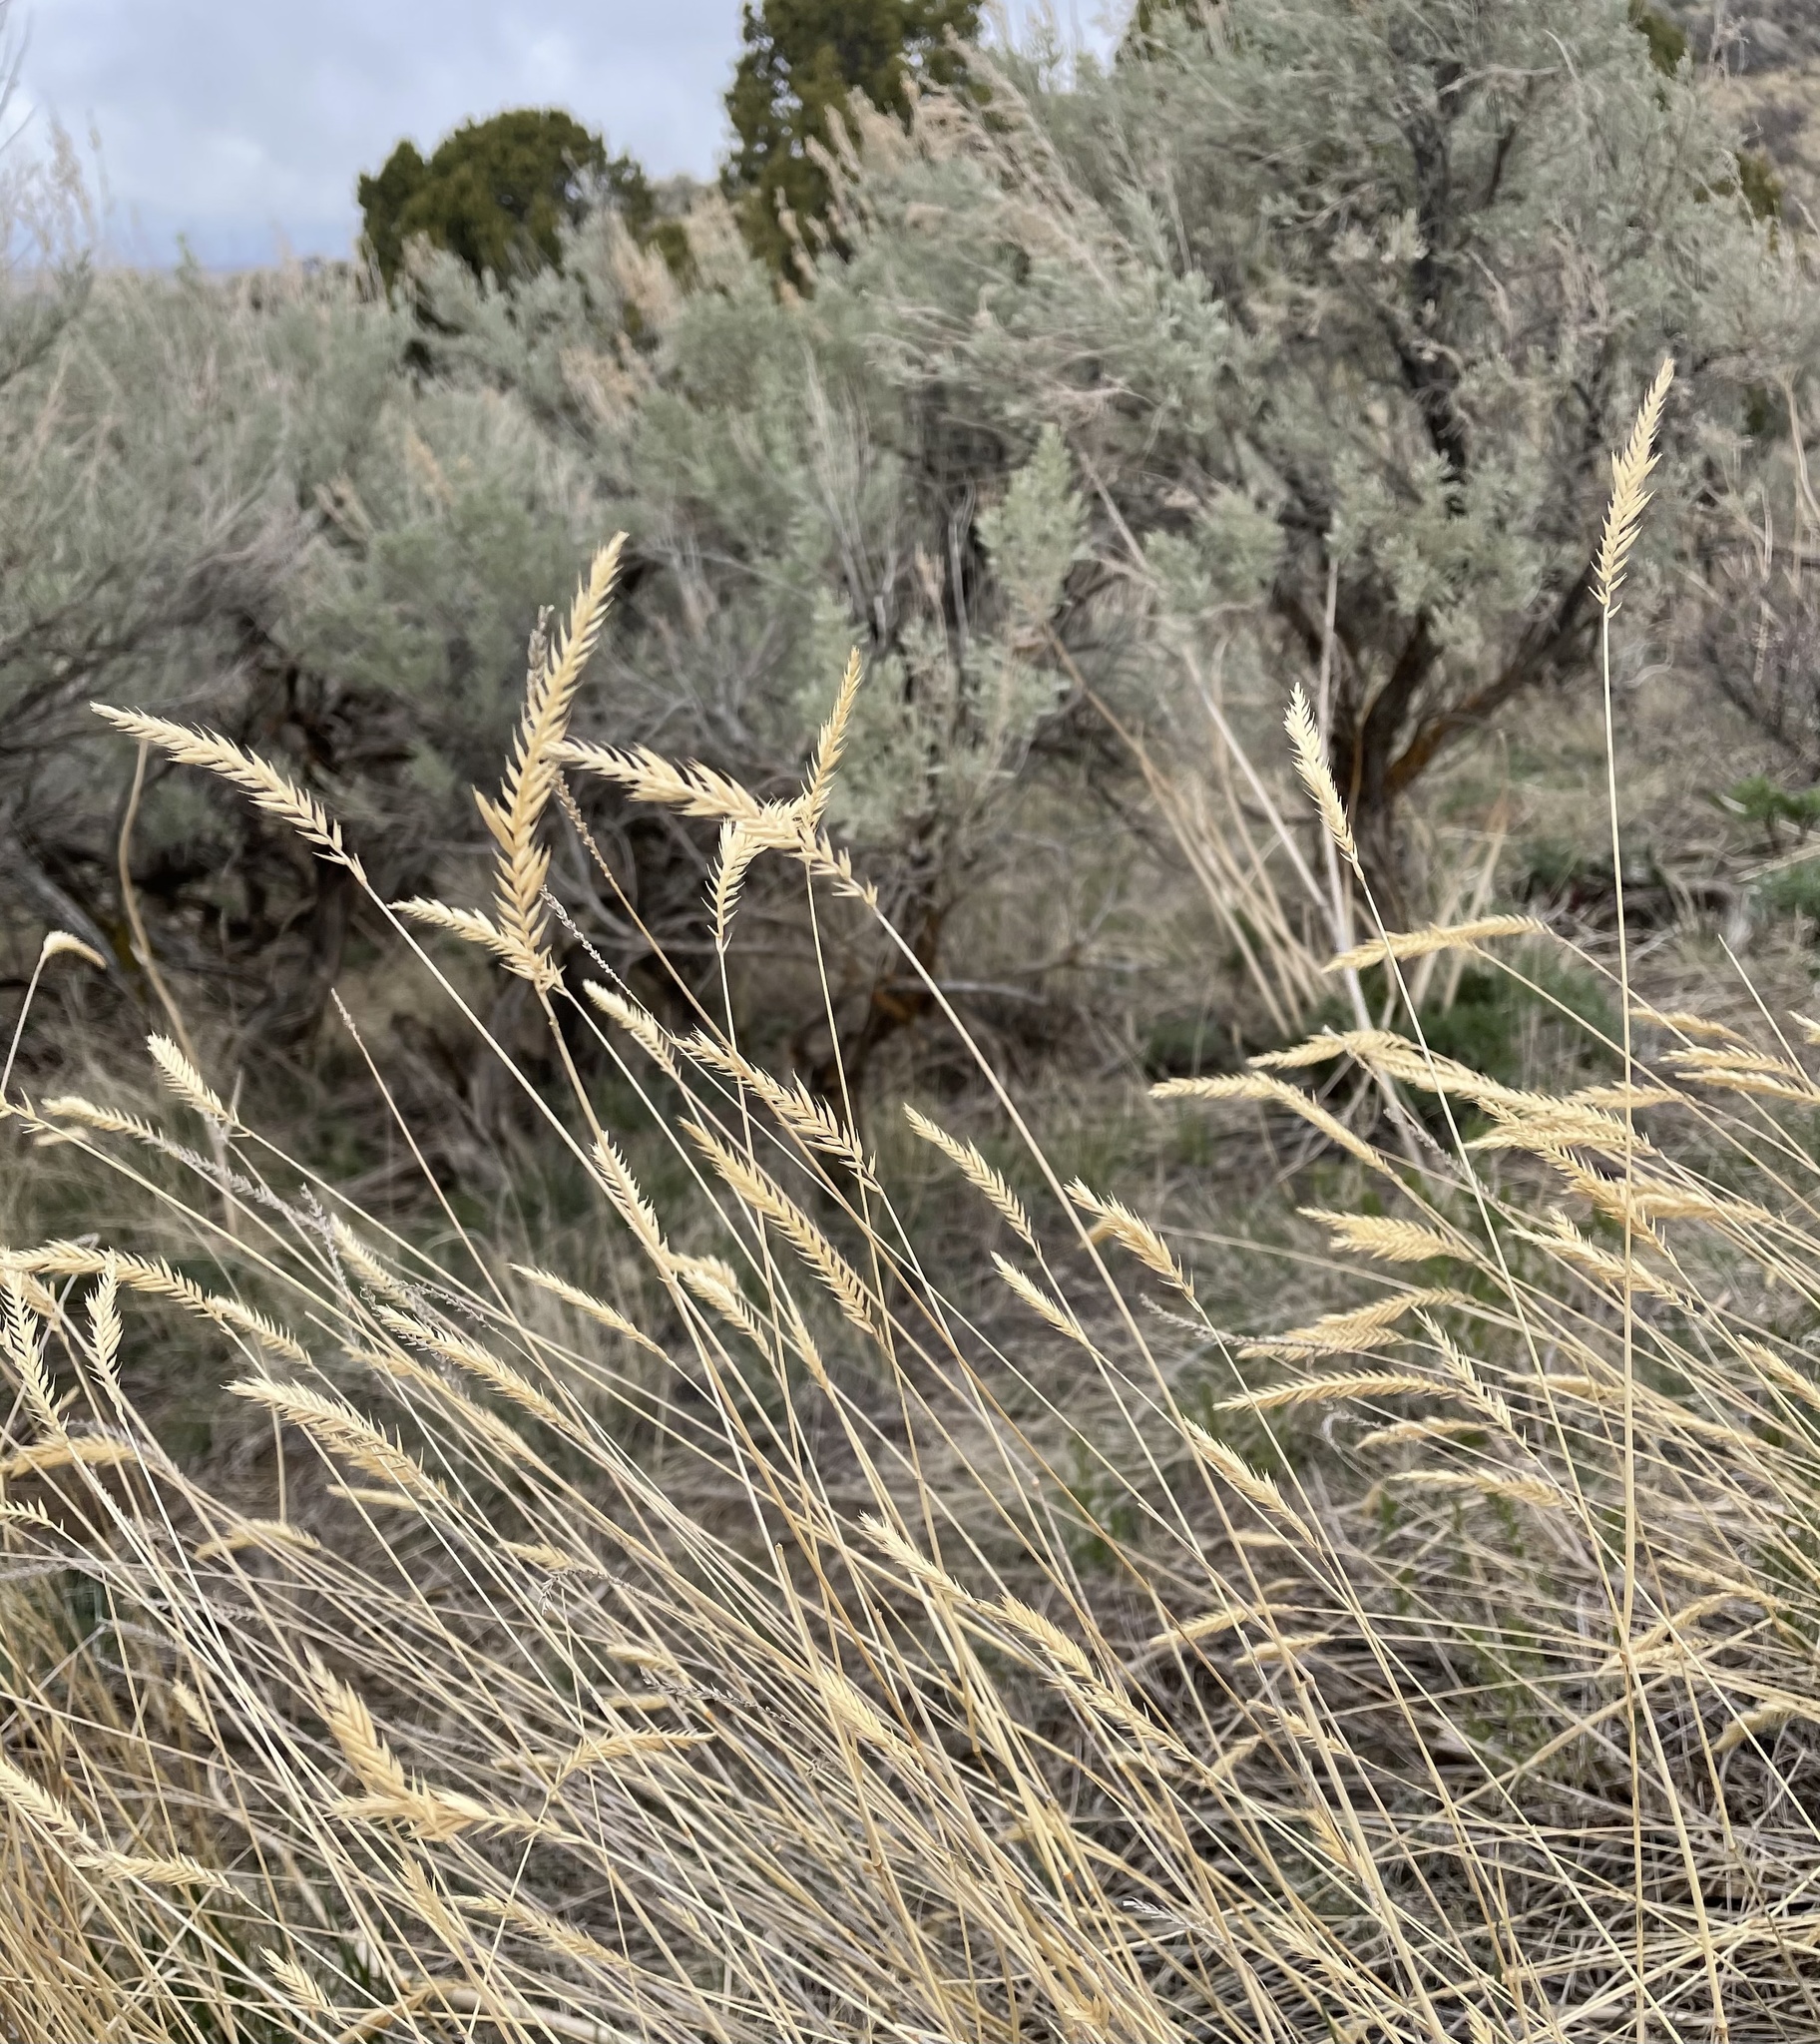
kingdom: Plantae
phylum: Tracheophyta
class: Liliopsida
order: Poales
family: Poaceae
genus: Agropyron
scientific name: Agropyron cristatum
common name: Crested wheatgrass
